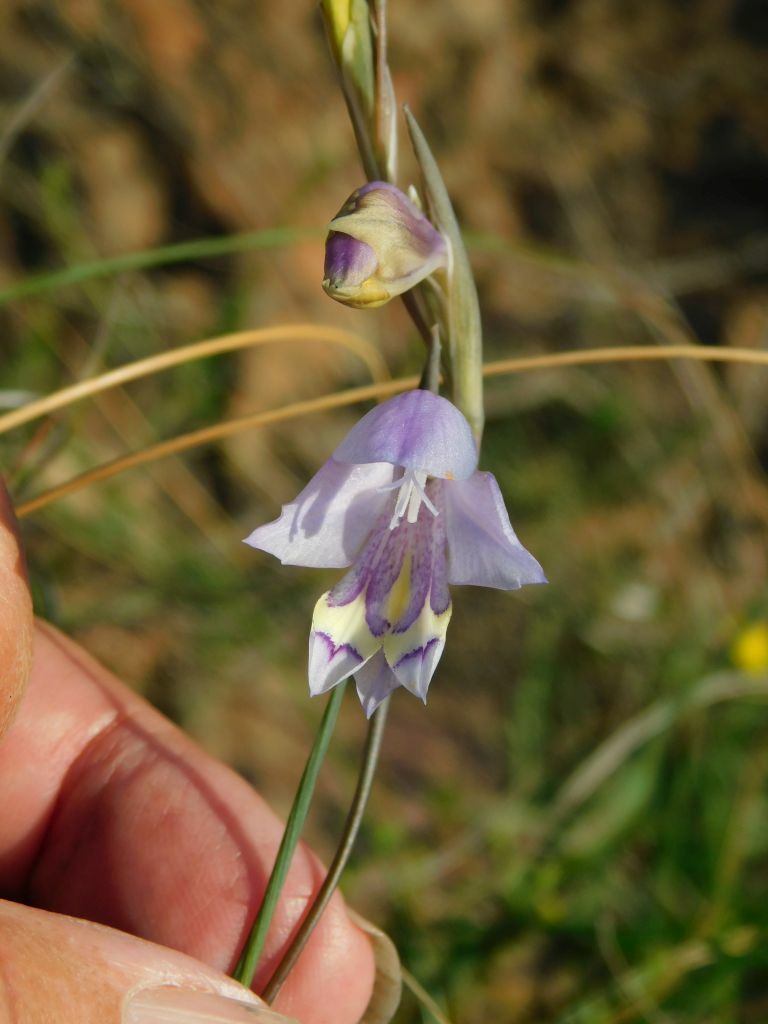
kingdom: Plantae
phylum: Tracheophyta
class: Liliopsida
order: Asparagales
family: Iridaceae
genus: Gladiolus
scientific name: Gladiolus rogersii
